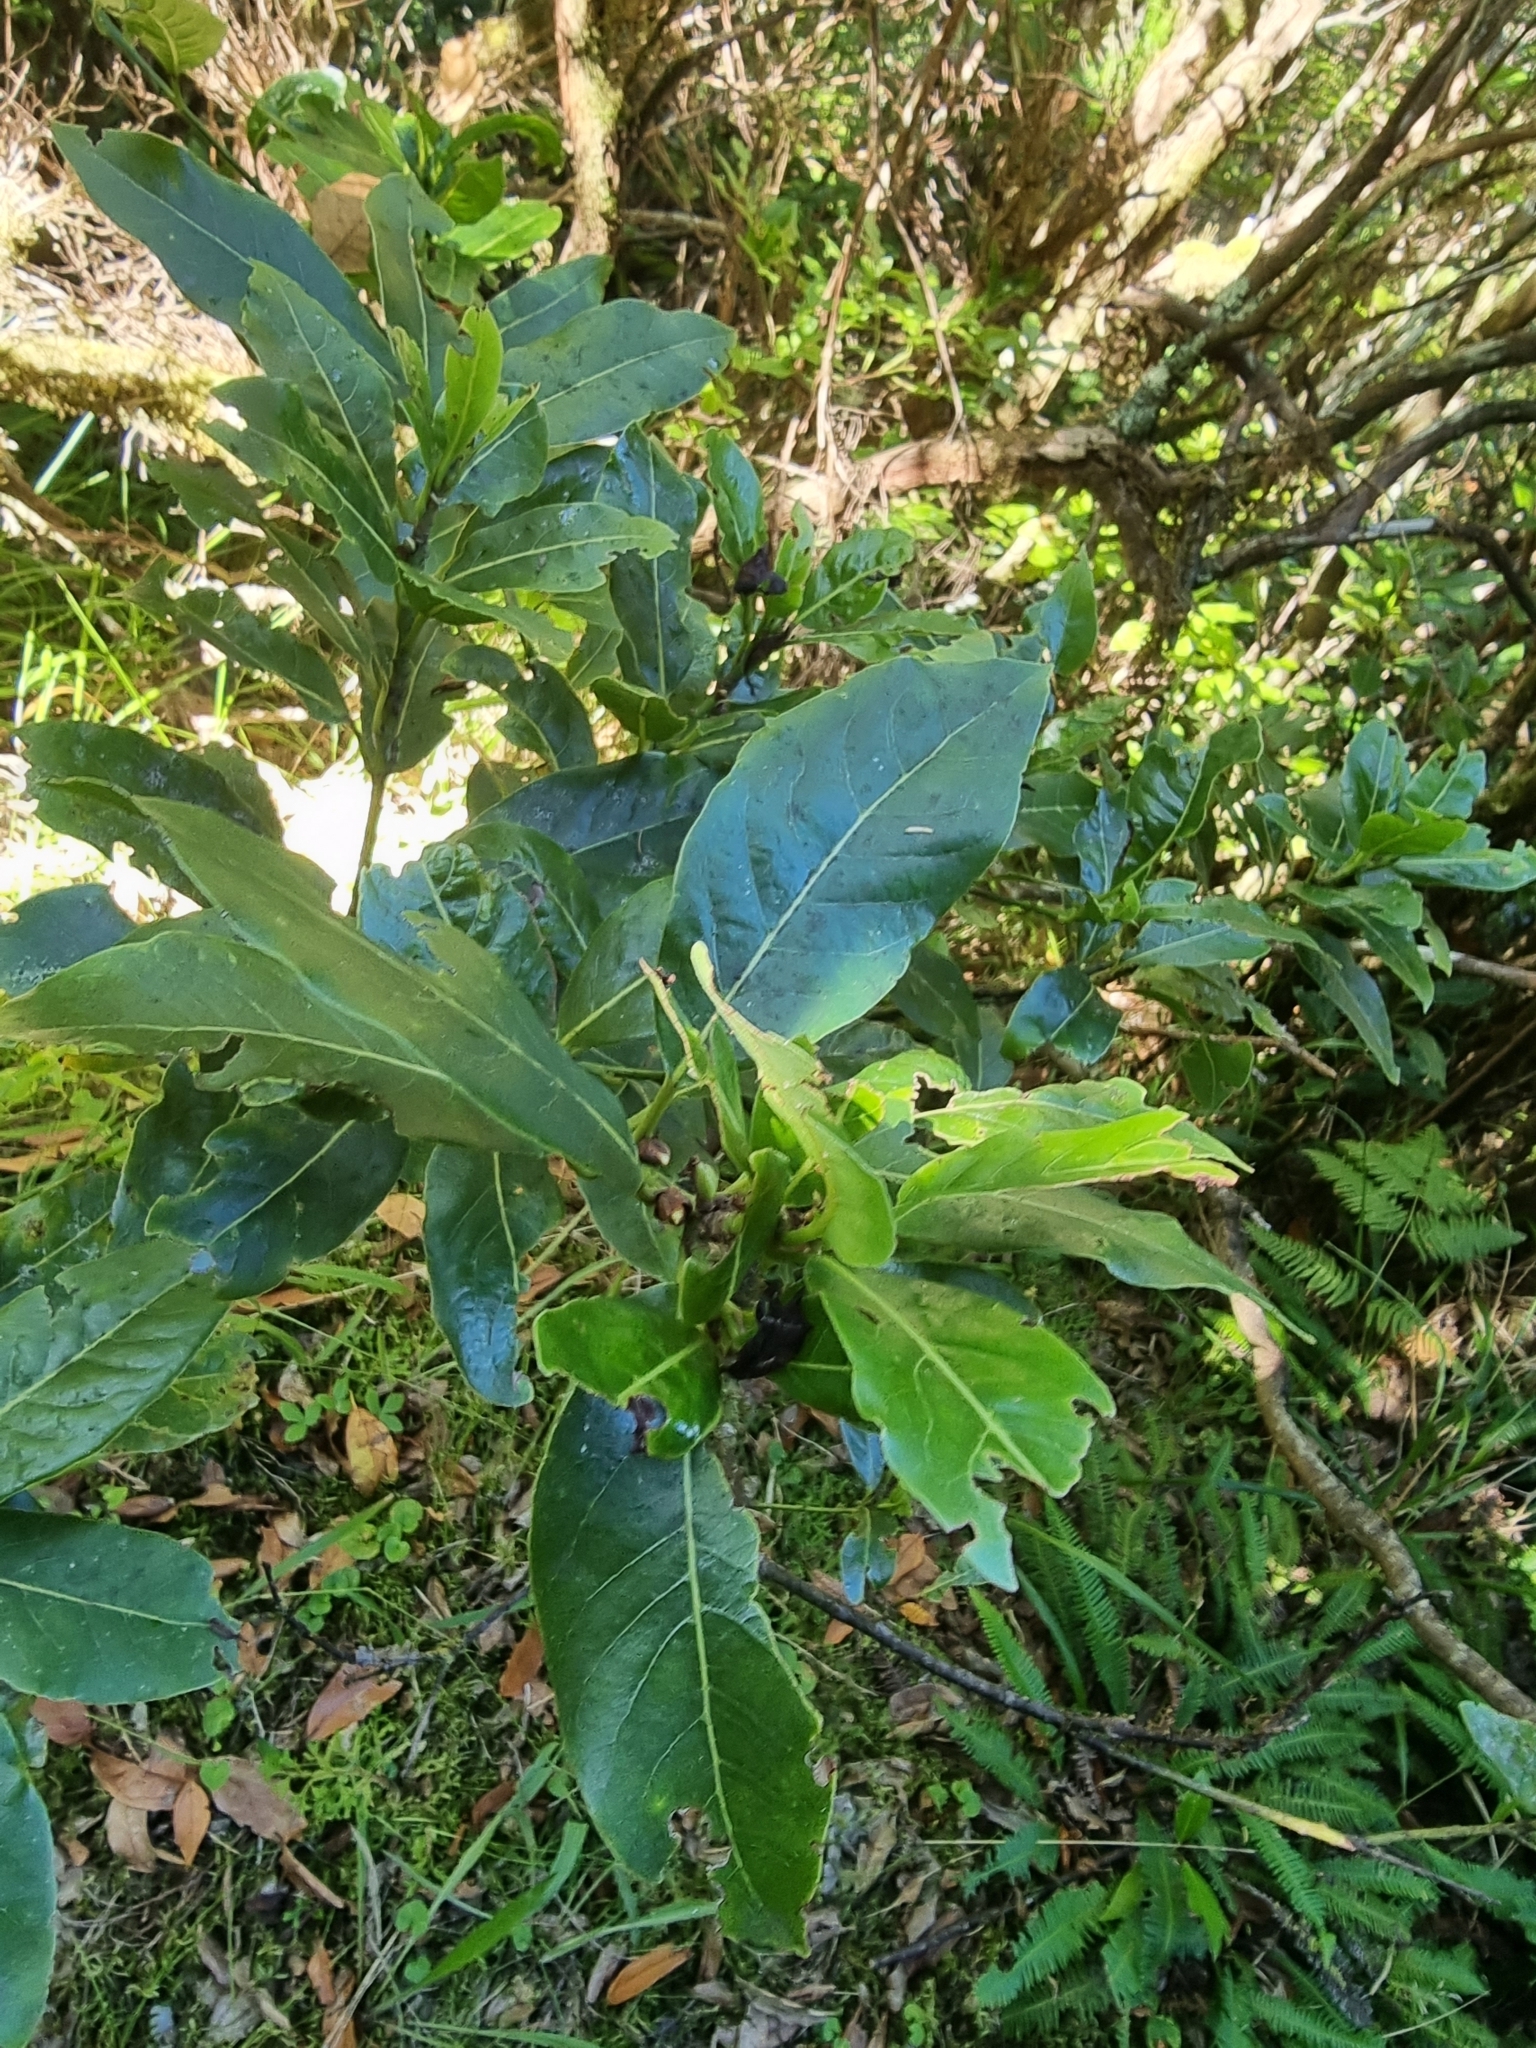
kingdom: Plantae
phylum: Tracheophyta
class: Magnoliopsida
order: Laurales
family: Lauraceae
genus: Laurus
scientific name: Laurus novocanariensis
